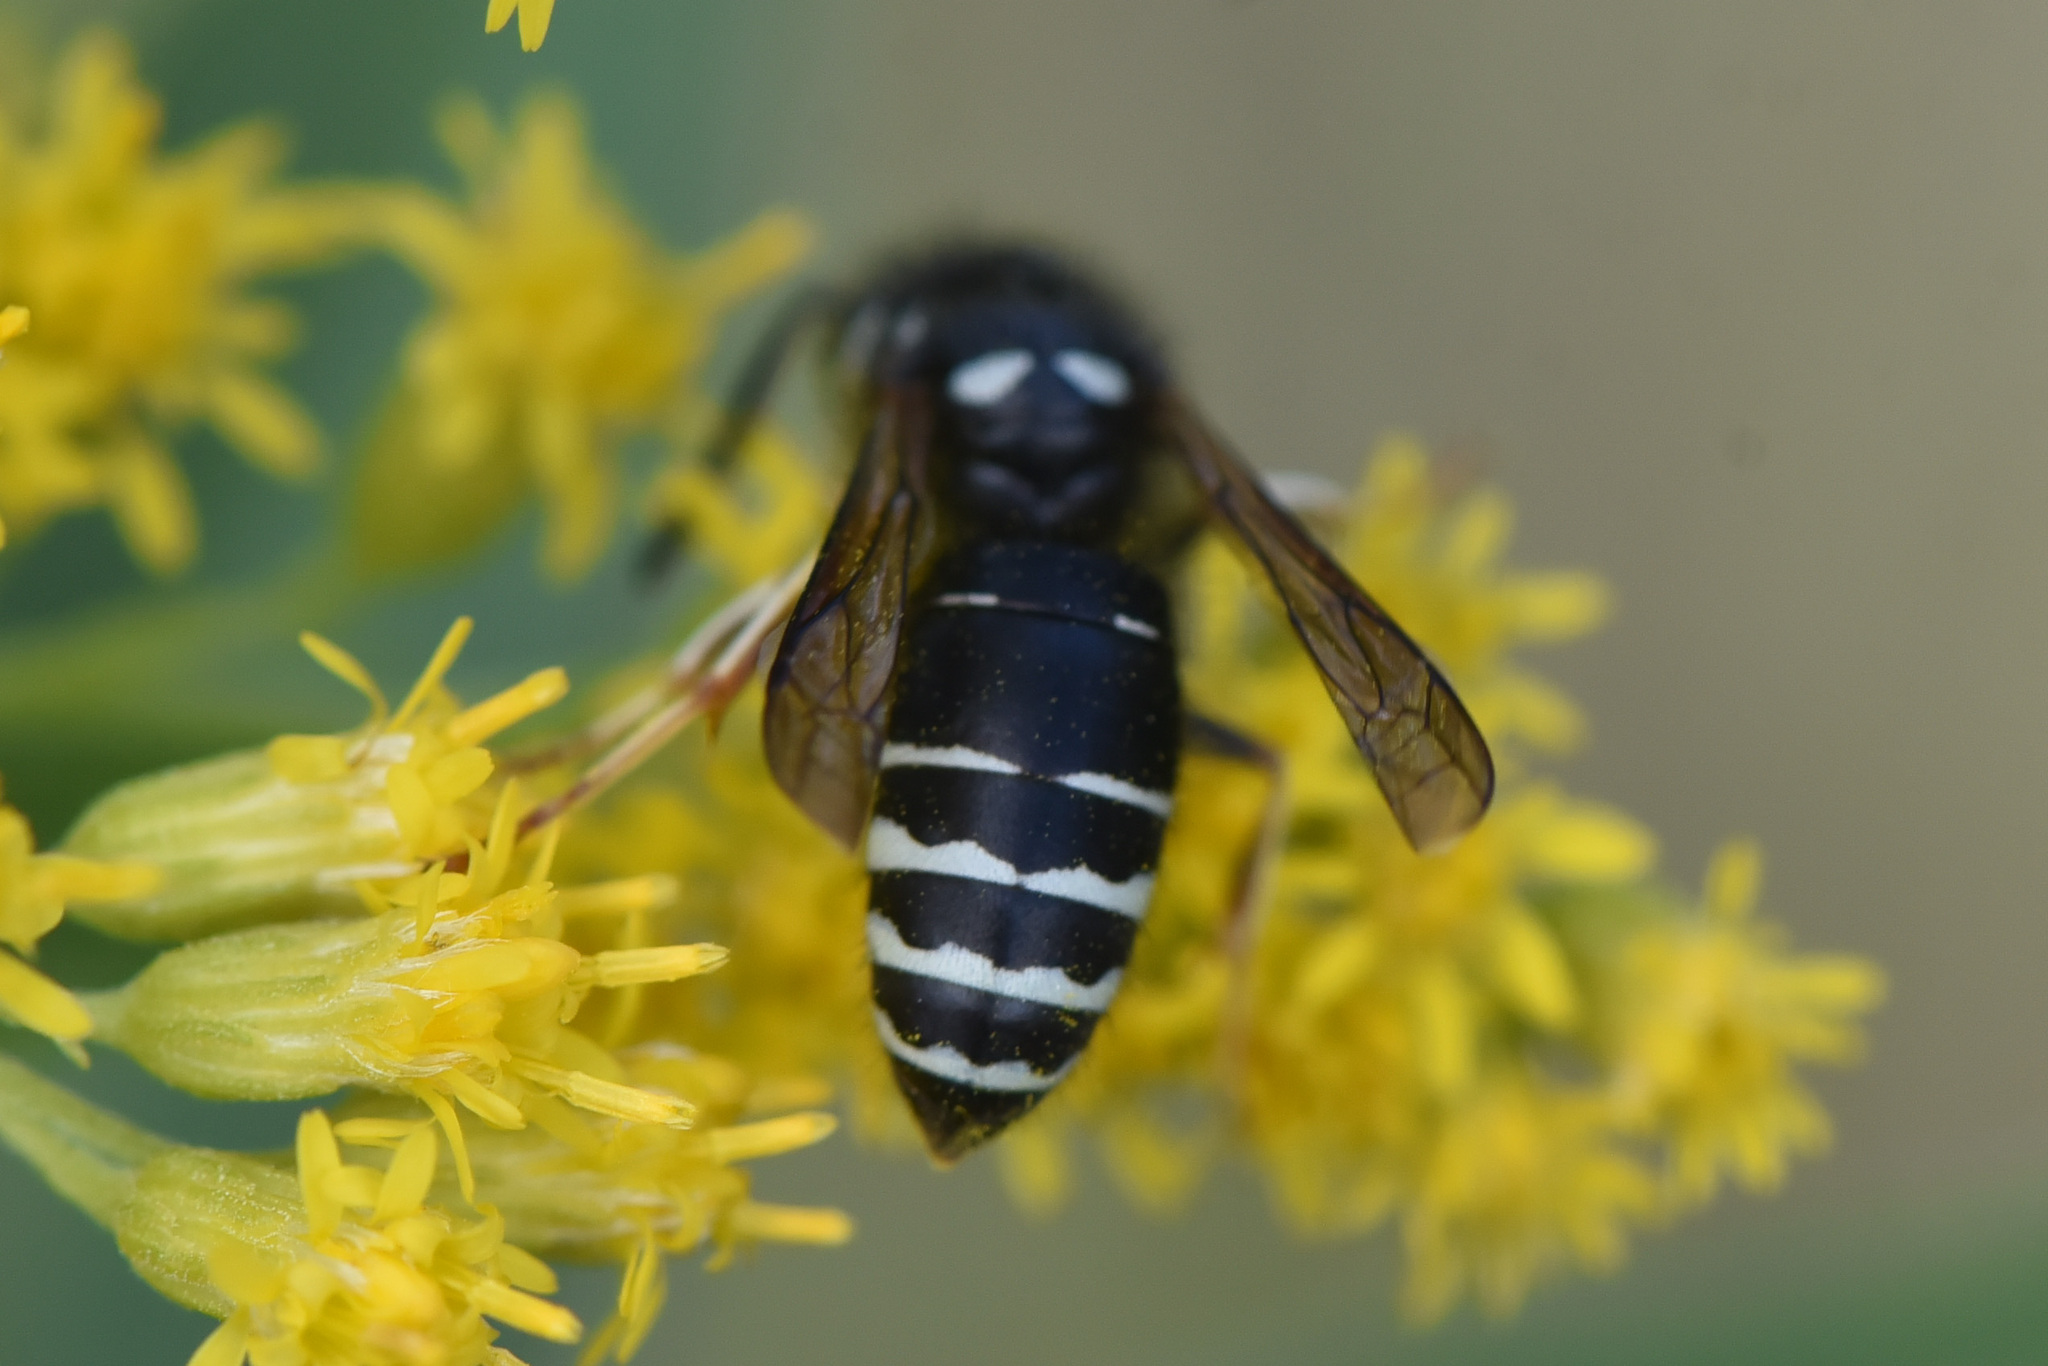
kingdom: Animalia
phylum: Arthropoda
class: Insecta
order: Hymenoptera
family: Vespidae
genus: Vespula
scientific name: Vespula consobrina
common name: Blackjacket
